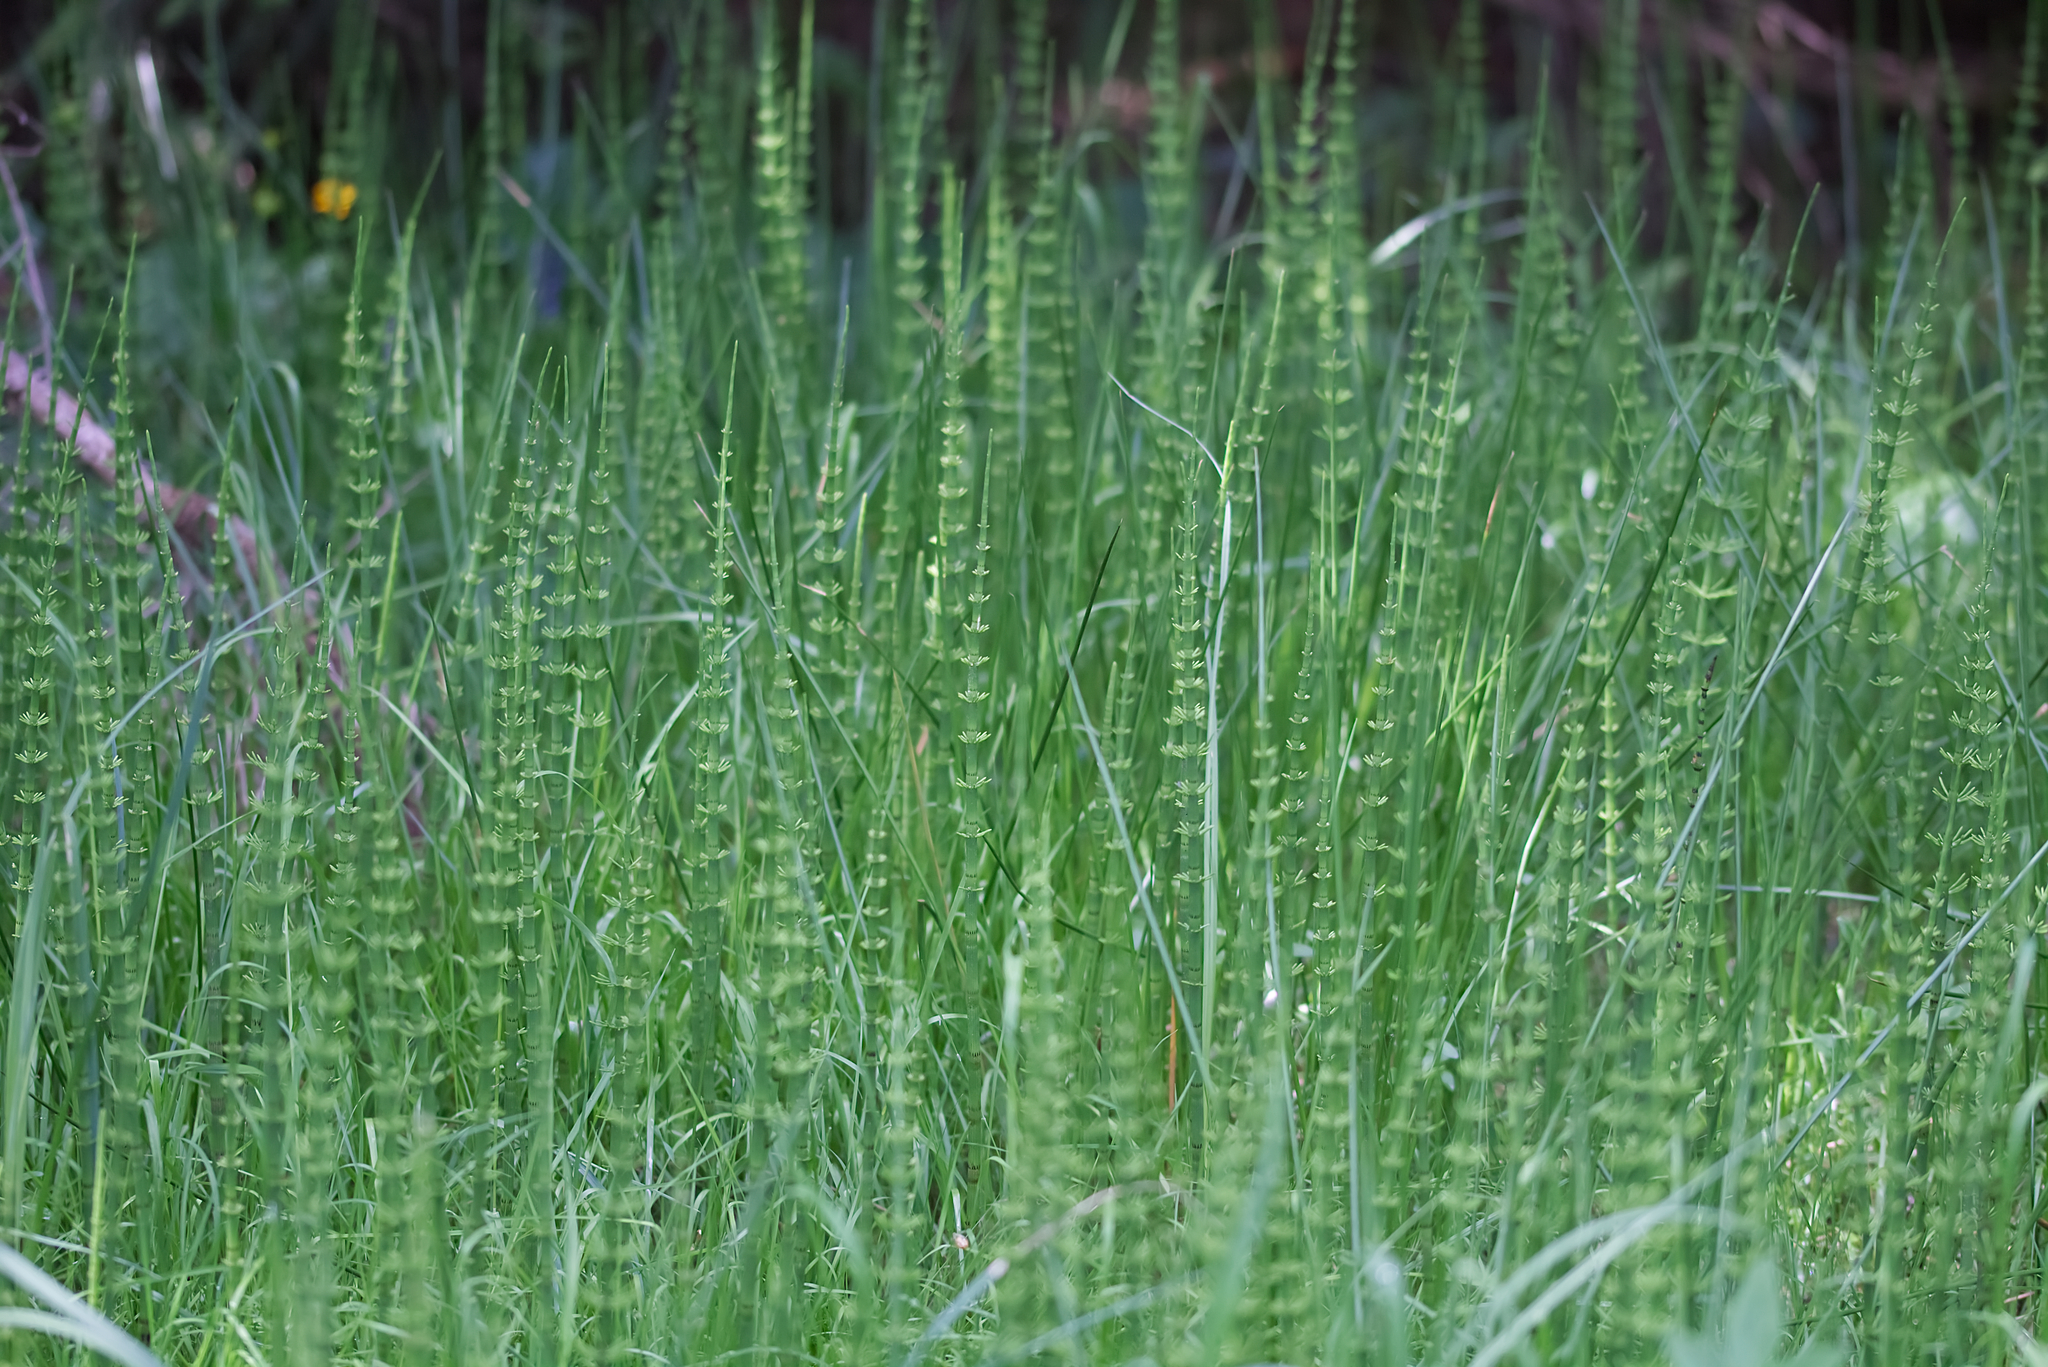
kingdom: Plantae
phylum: Tracheophyta
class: Polypodiopsida
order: Equisetales
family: Equisetaceae
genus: Equisetum
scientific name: Equisetum fluviatile
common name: Water horsetail
